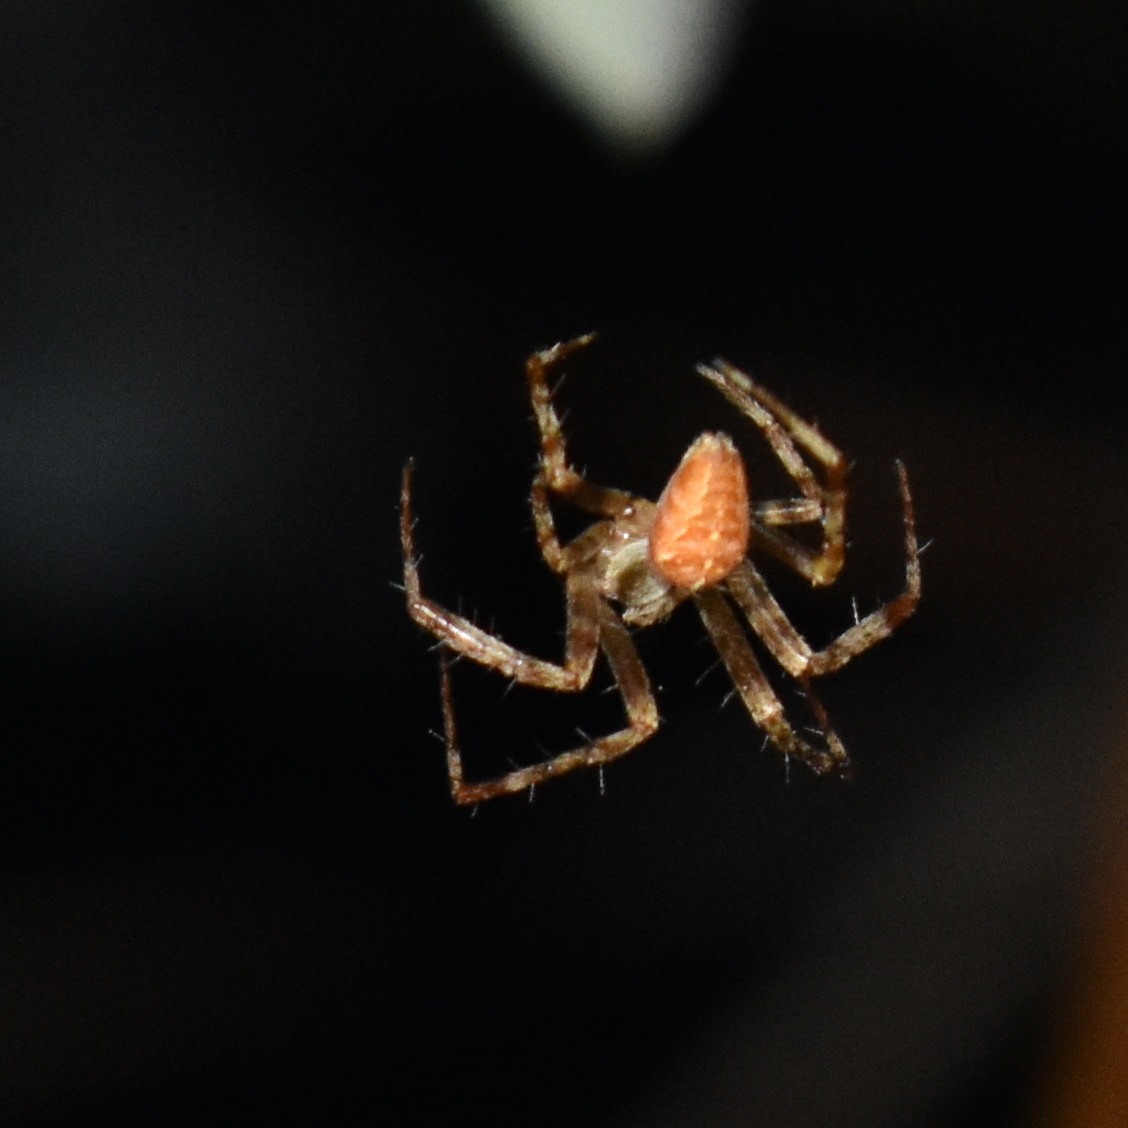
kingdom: Animalia
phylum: Arthropoda
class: Arachnida
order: Araneae
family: Araneidae
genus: Araneus
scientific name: Araneus diadematus
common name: Cross orbweaver
